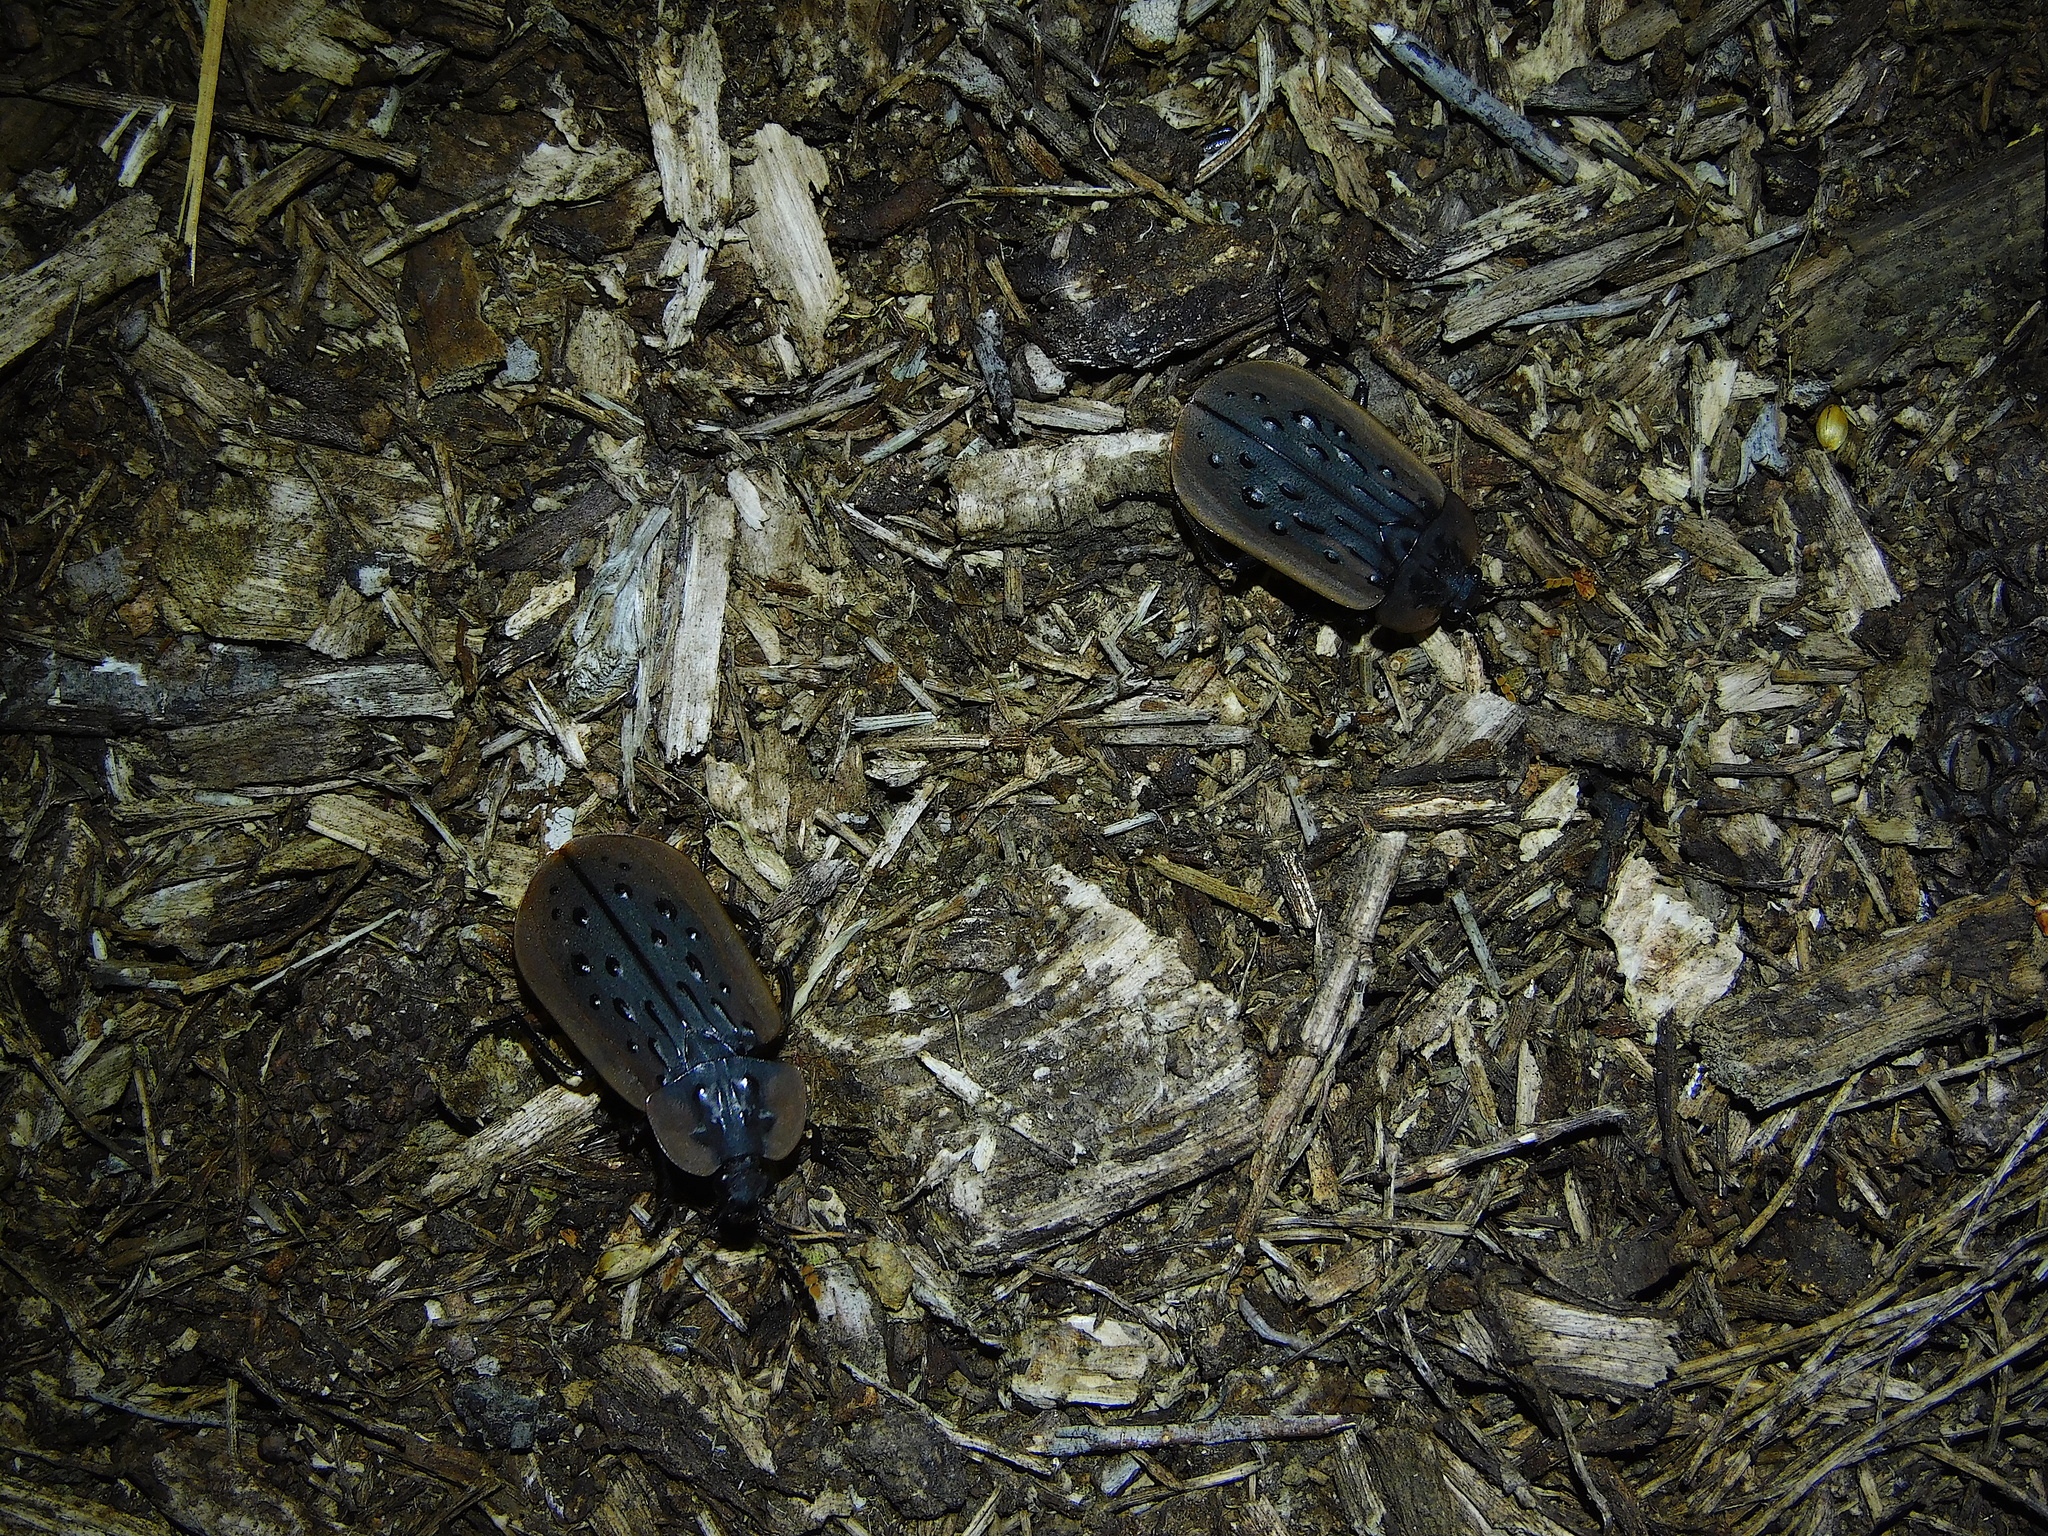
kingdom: Animalia
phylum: Arthropoda
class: Insecta
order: Coleoptera
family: Staphylinidae
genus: Ptomaphila
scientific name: Ptomaphila lacrymosa
